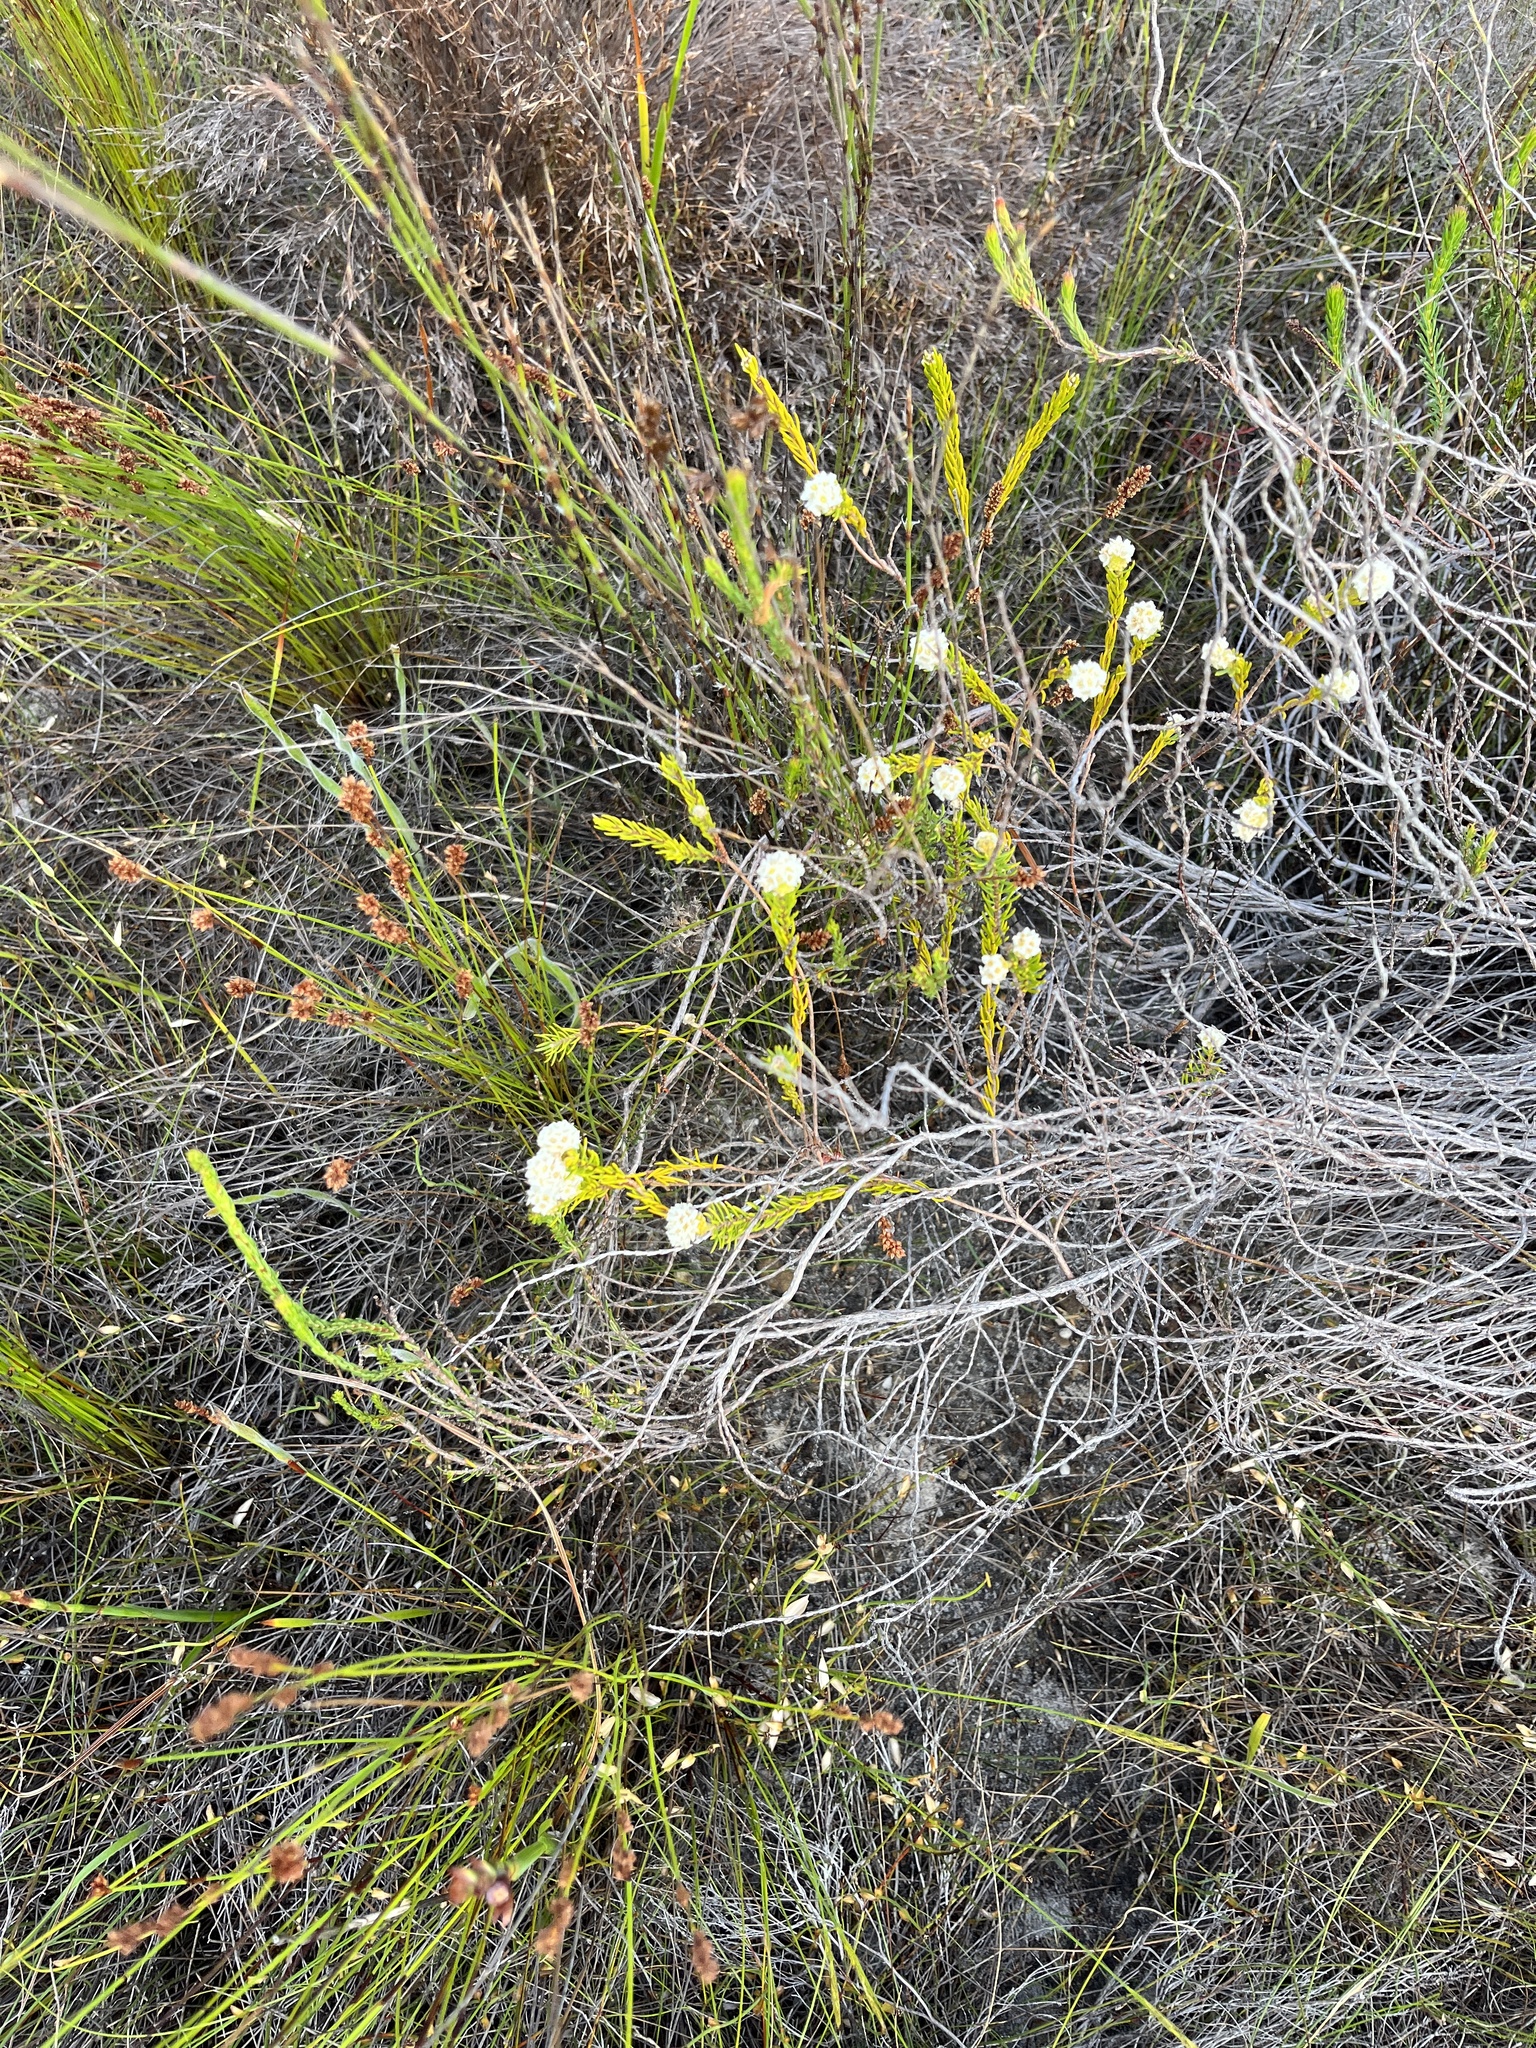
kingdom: Plantae
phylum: Tracheophyta
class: Magnoliopsida
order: Malvales
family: Thymelaeaceae
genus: Lachnaea
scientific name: Lachnaea densiflora
